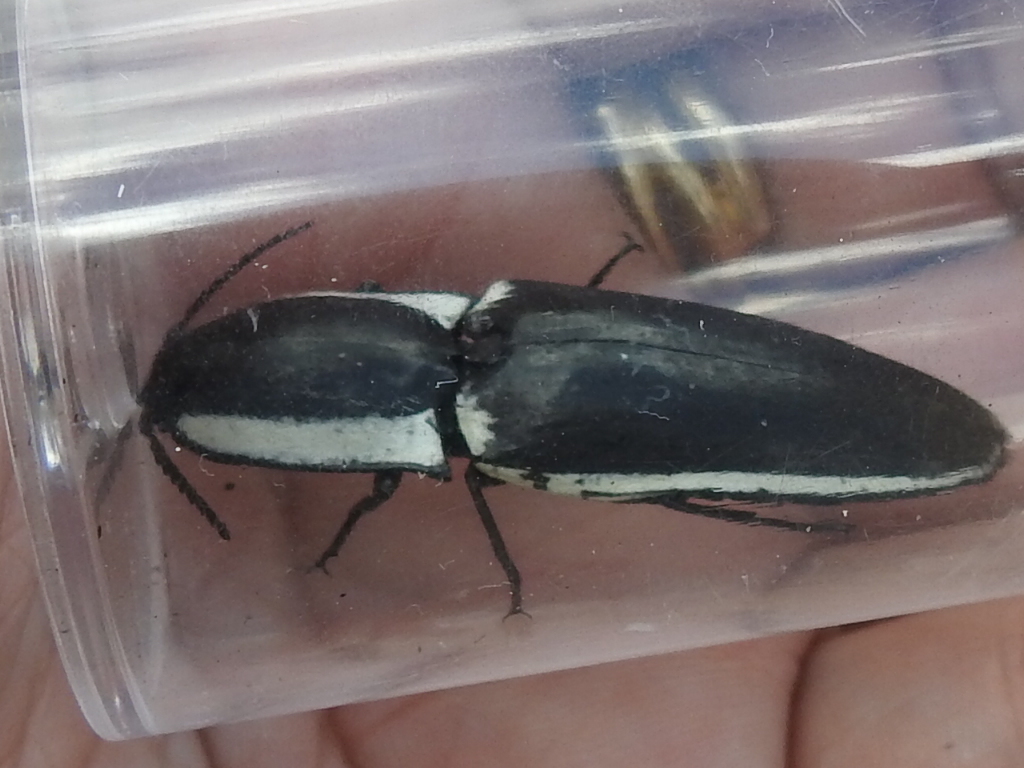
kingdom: Animalia
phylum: Arthropoda
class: Insecta
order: Coleoptera
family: Elateridae
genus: Chalcolepidius
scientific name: Chalcolepidius
